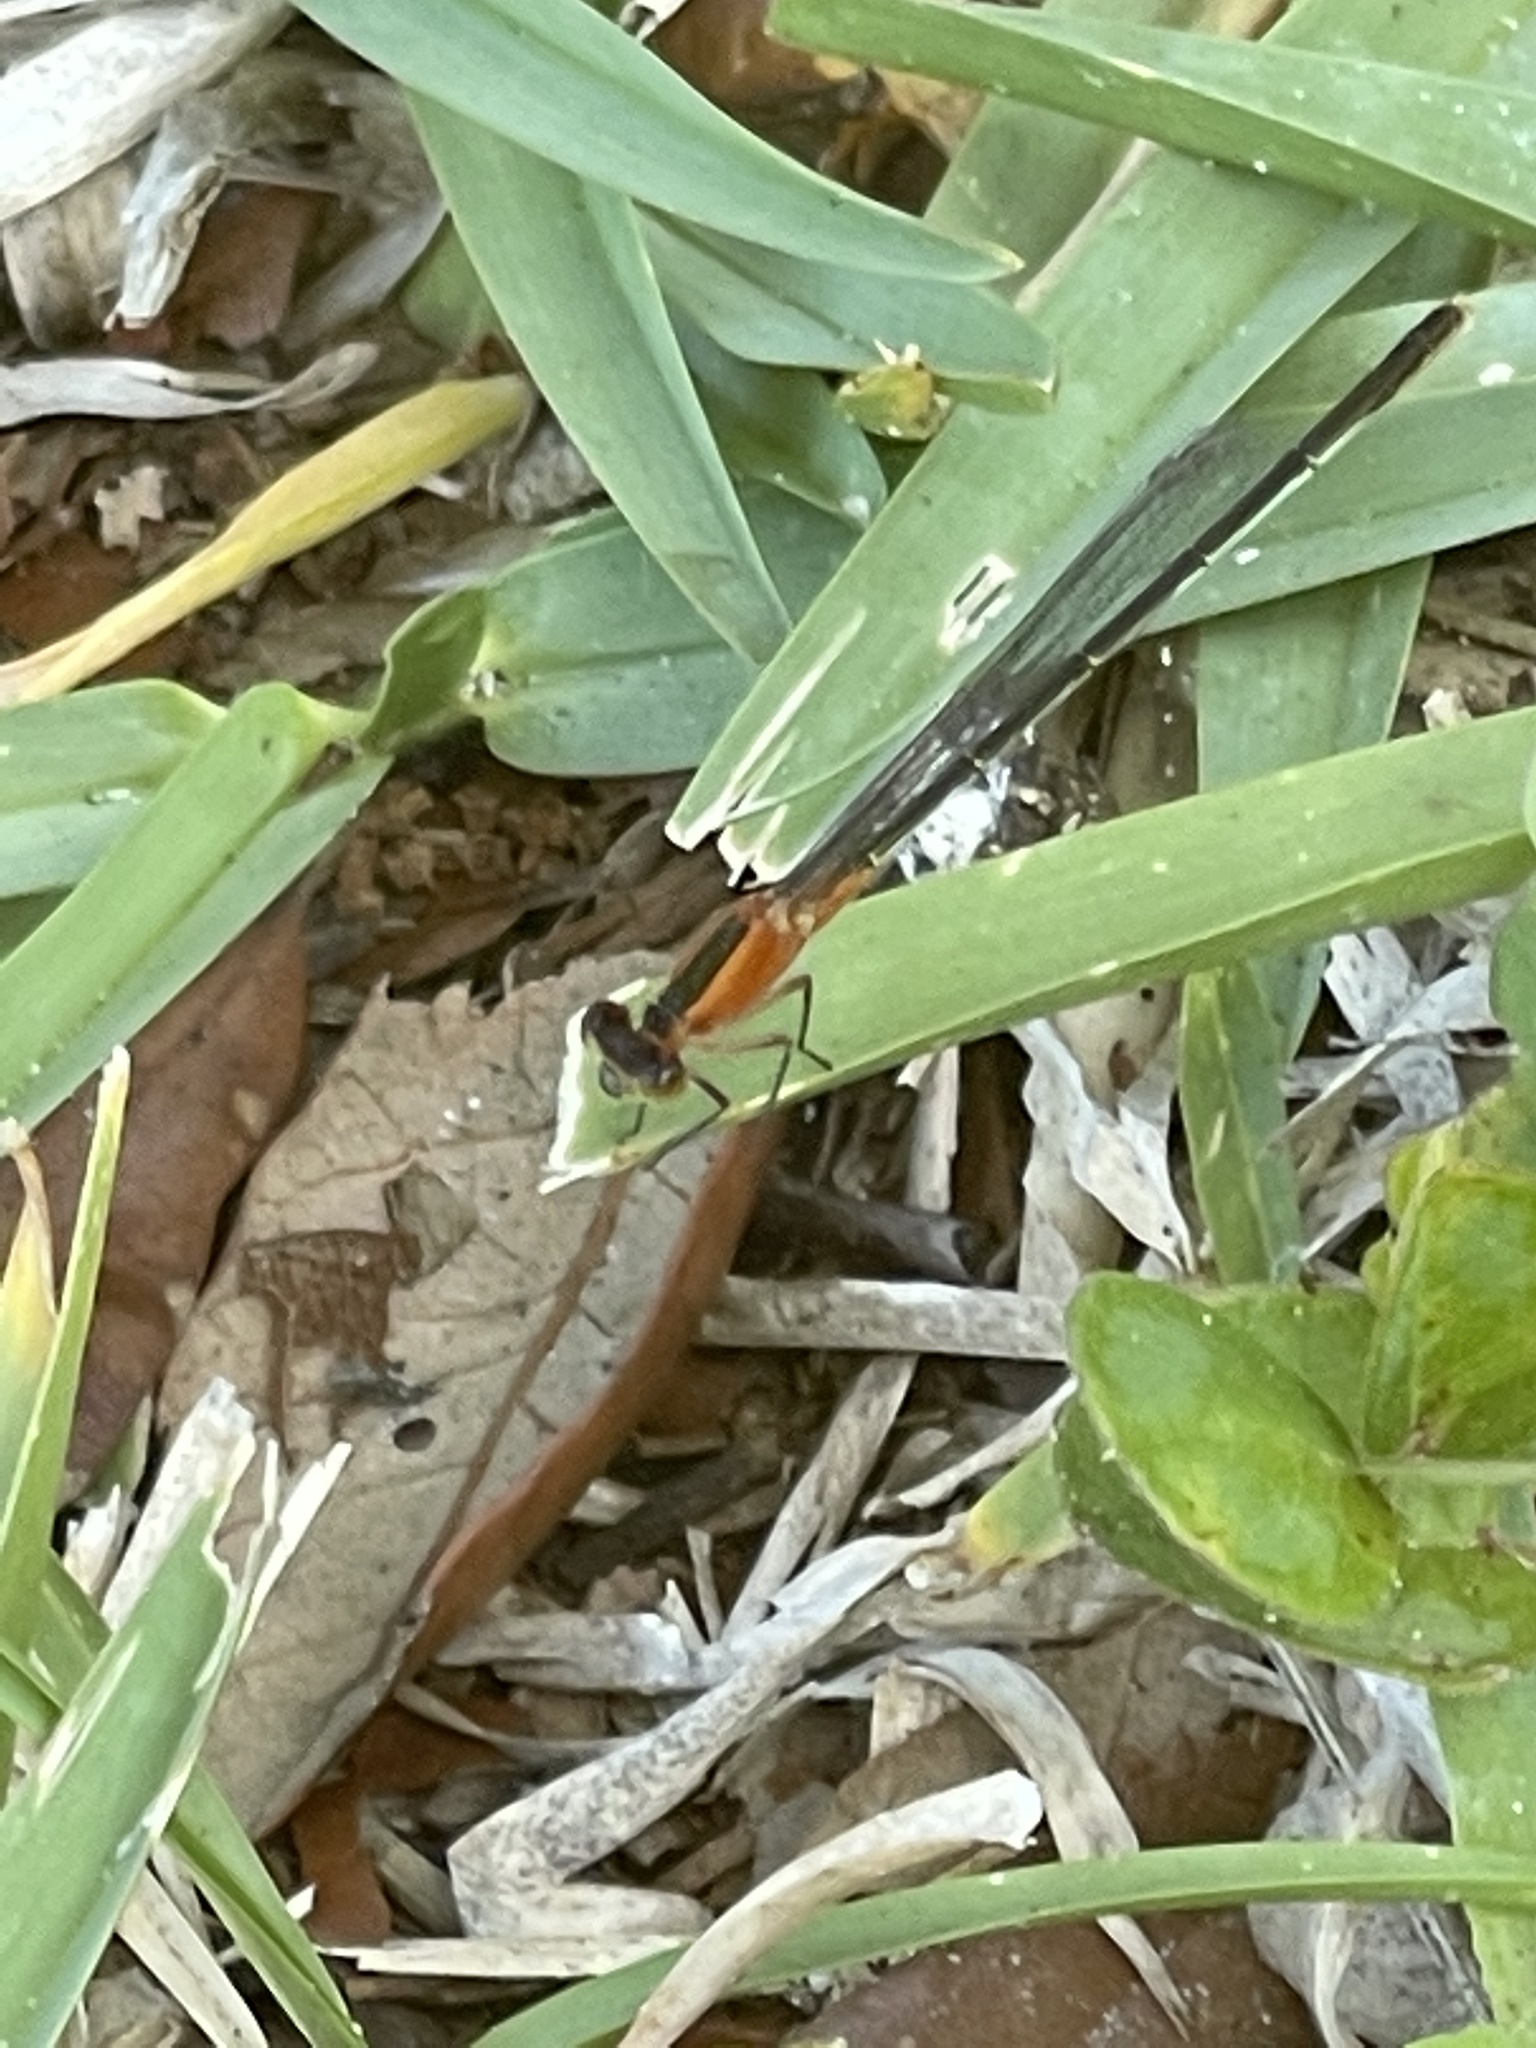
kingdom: Animalia
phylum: Arthropoda
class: Insecta
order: Odonata
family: Coenagrionidae
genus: Ischnura
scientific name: Ischnura ramburii
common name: Rambur's forktail
